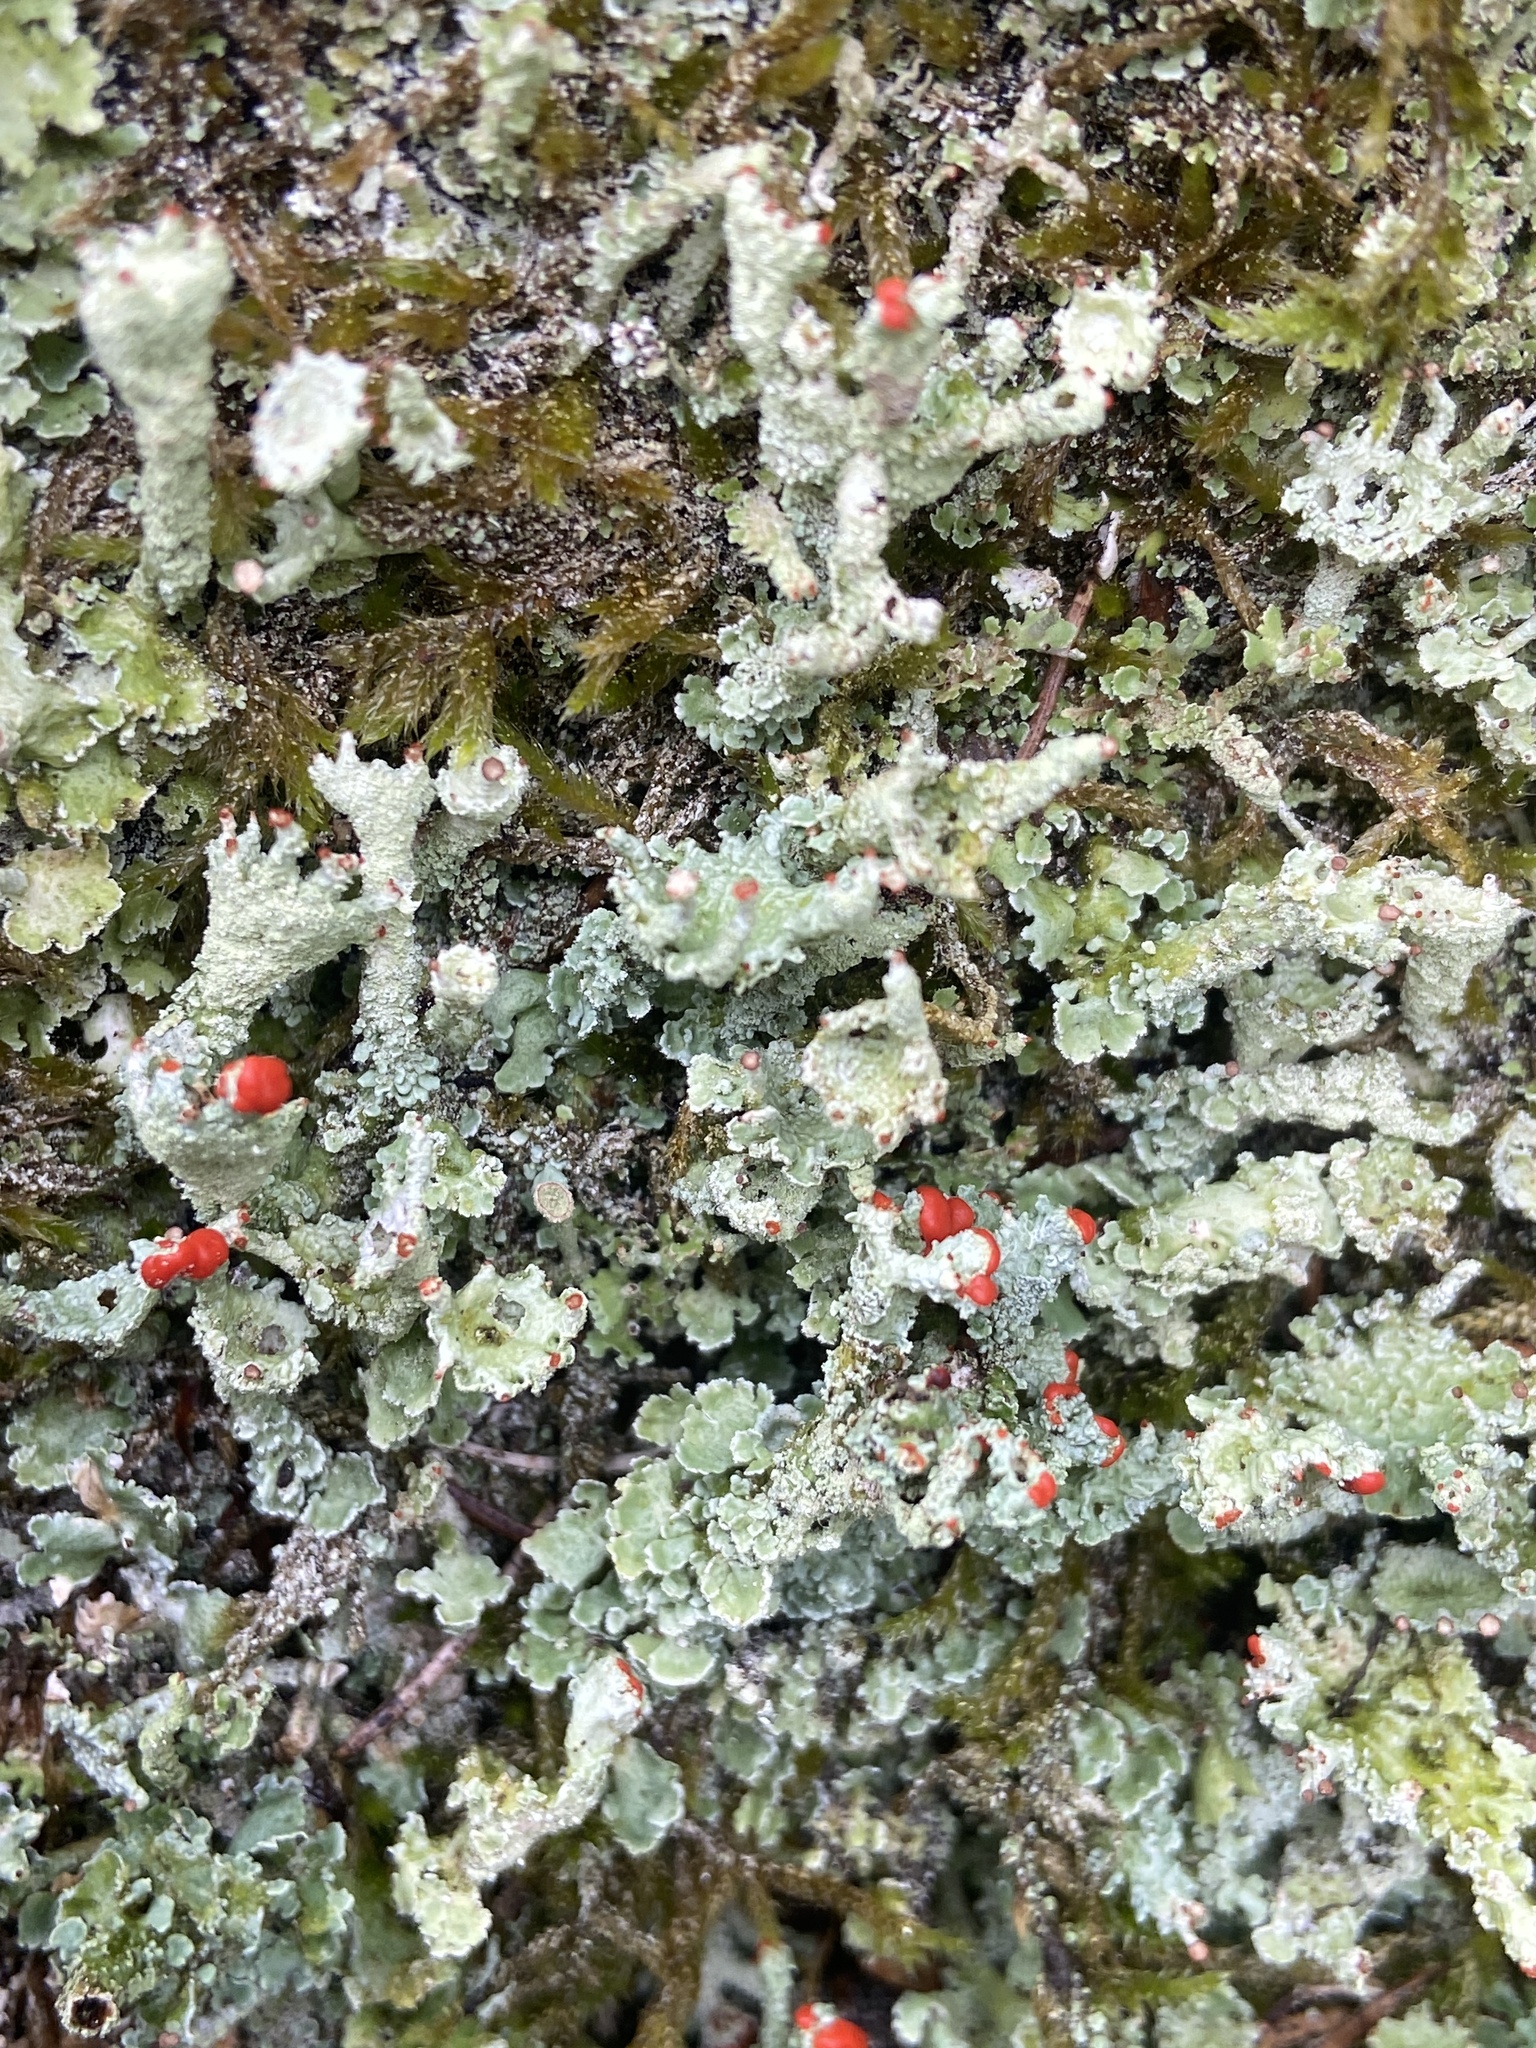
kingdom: Fungi
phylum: Ascomycota
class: Lecanoromycetes
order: Lecanorales
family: Cladoniaceae
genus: Cladonia
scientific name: Cladonia digitata
